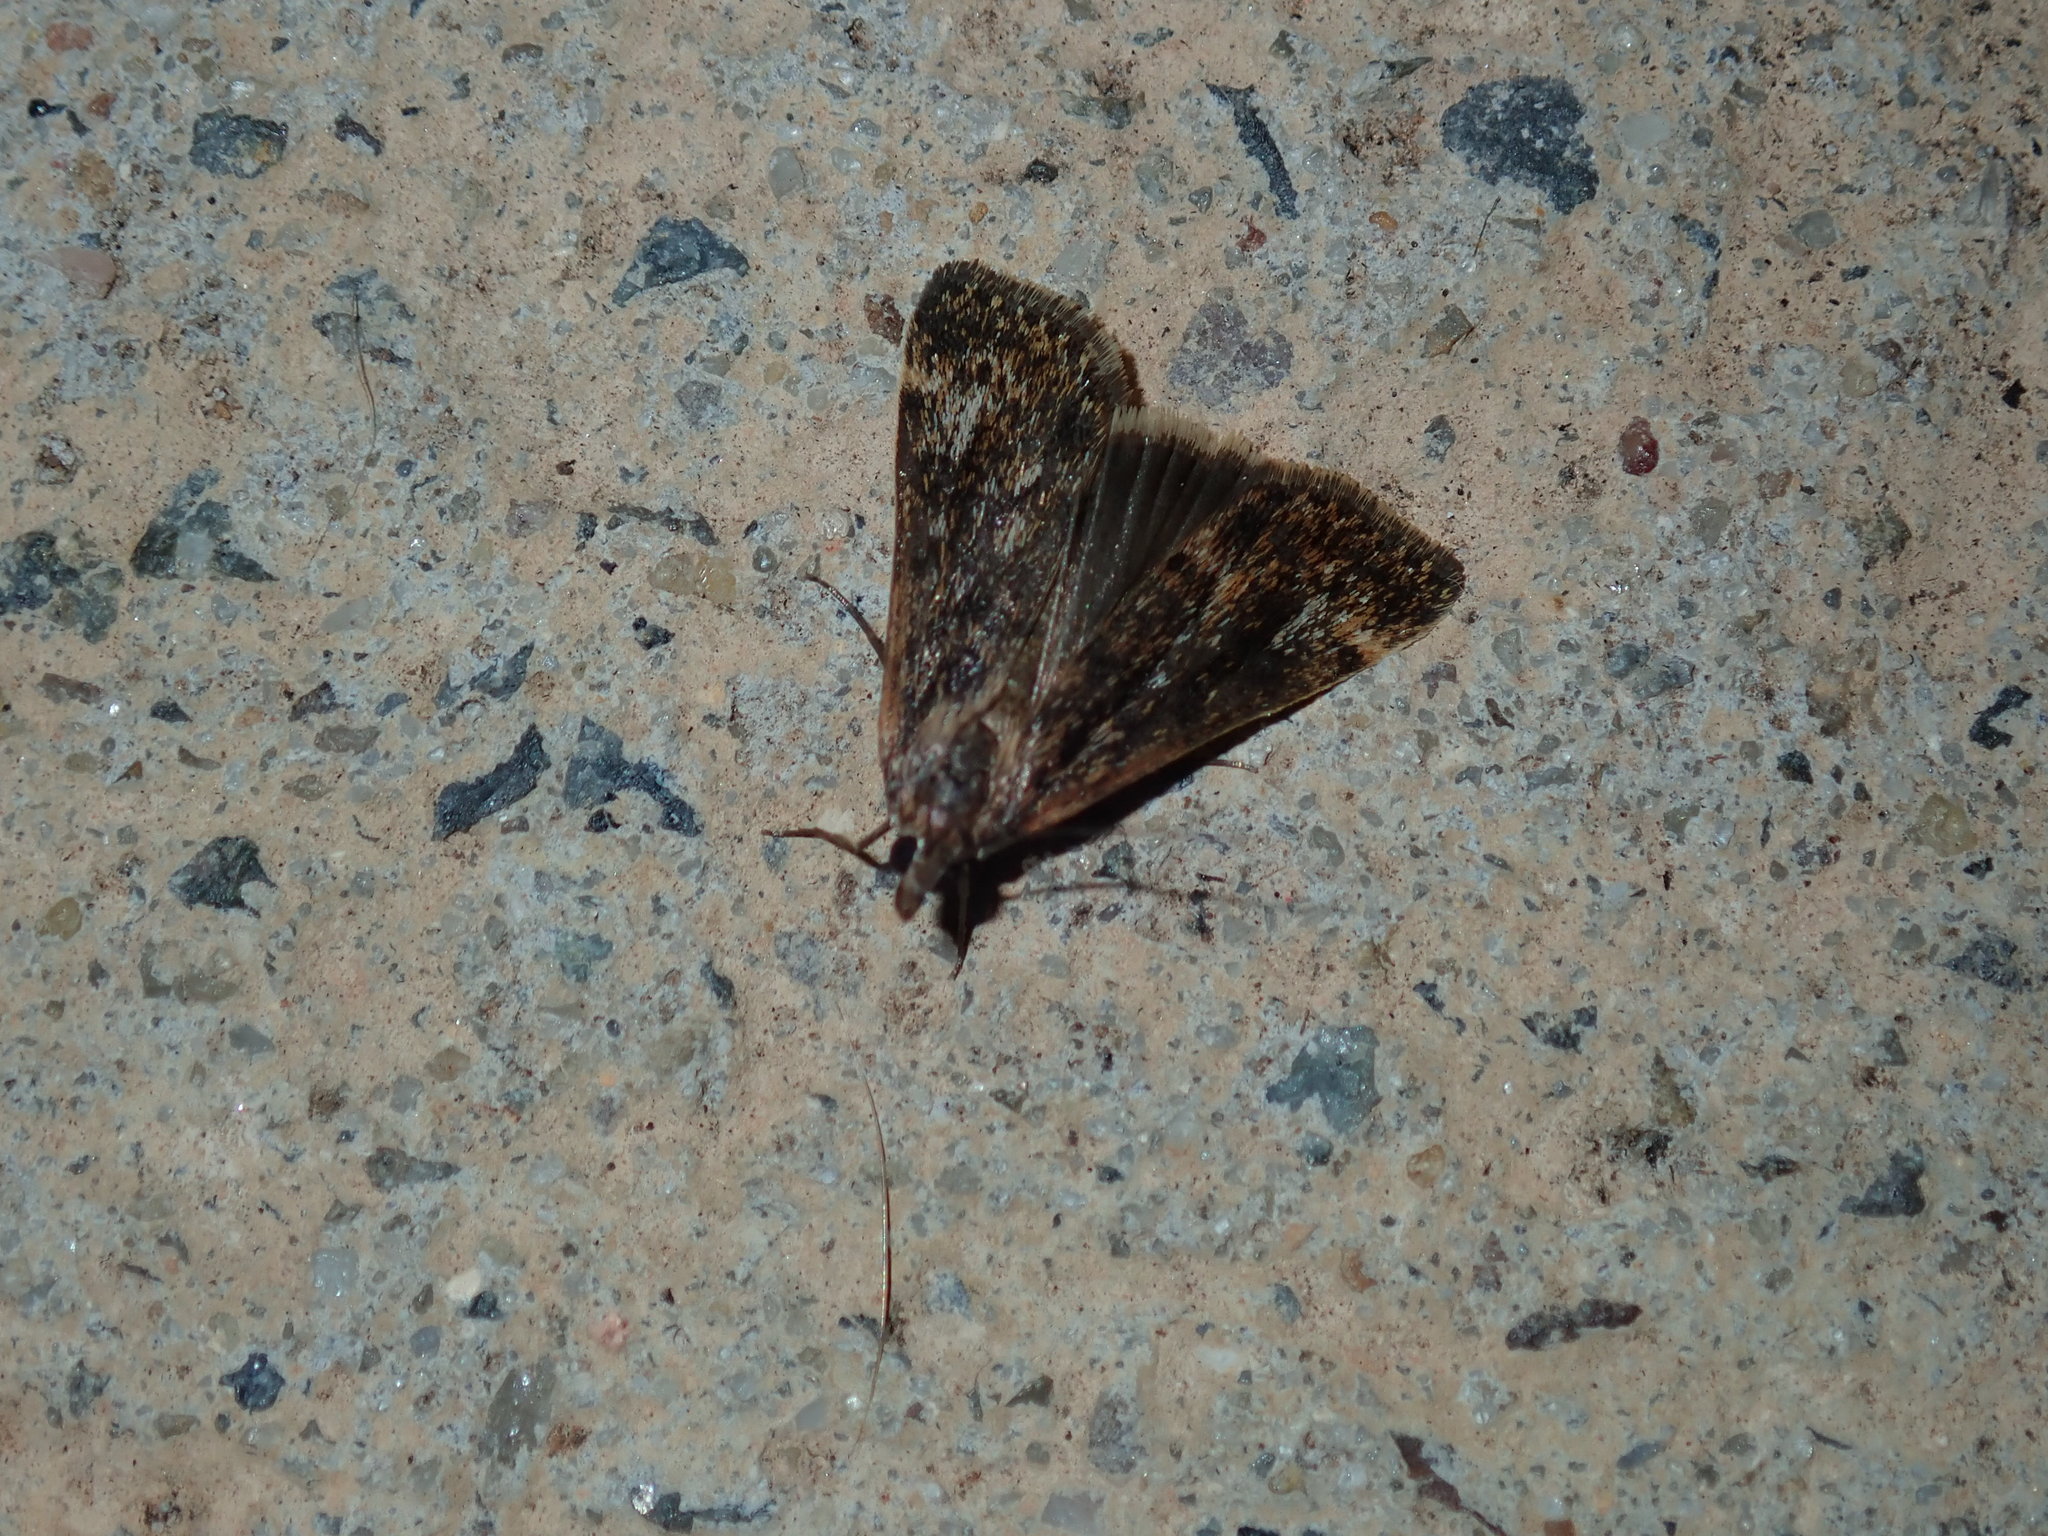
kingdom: Animalia
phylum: Arthropoda
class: Insecta
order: Lepidoptera
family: Crambidae
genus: Achyra
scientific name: Achyra affinitalis
